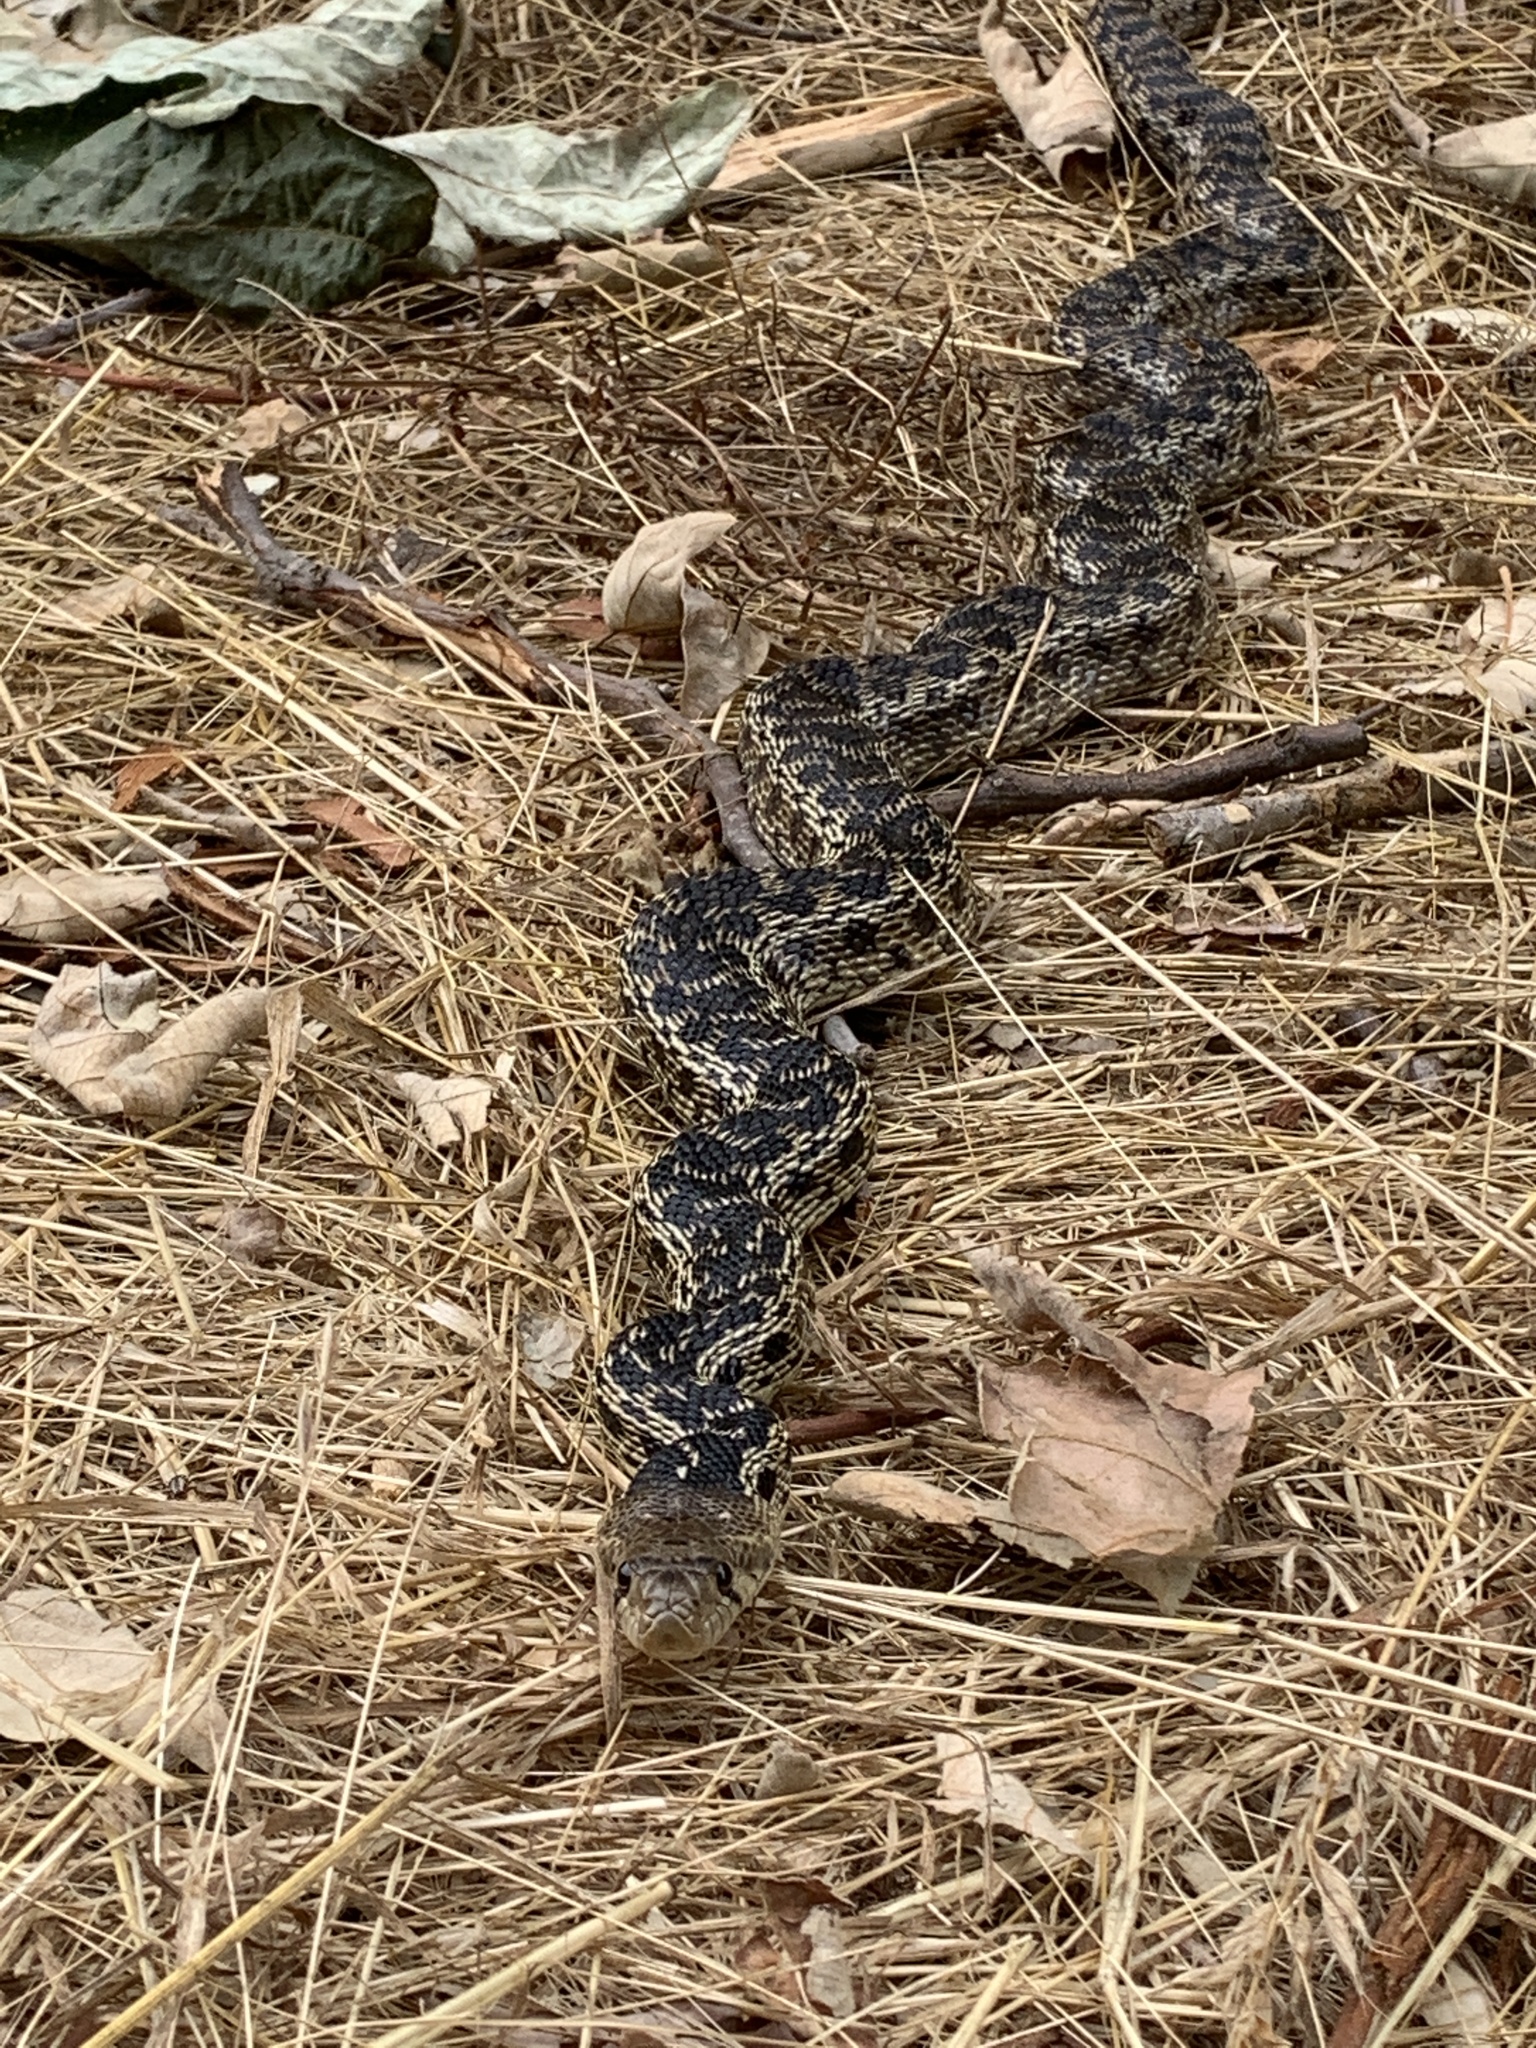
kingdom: Animalia
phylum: Chordata
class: Squamata
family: Colubridae
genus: Pituophis
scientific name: Pituophis catenifer
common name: Gopher snake
